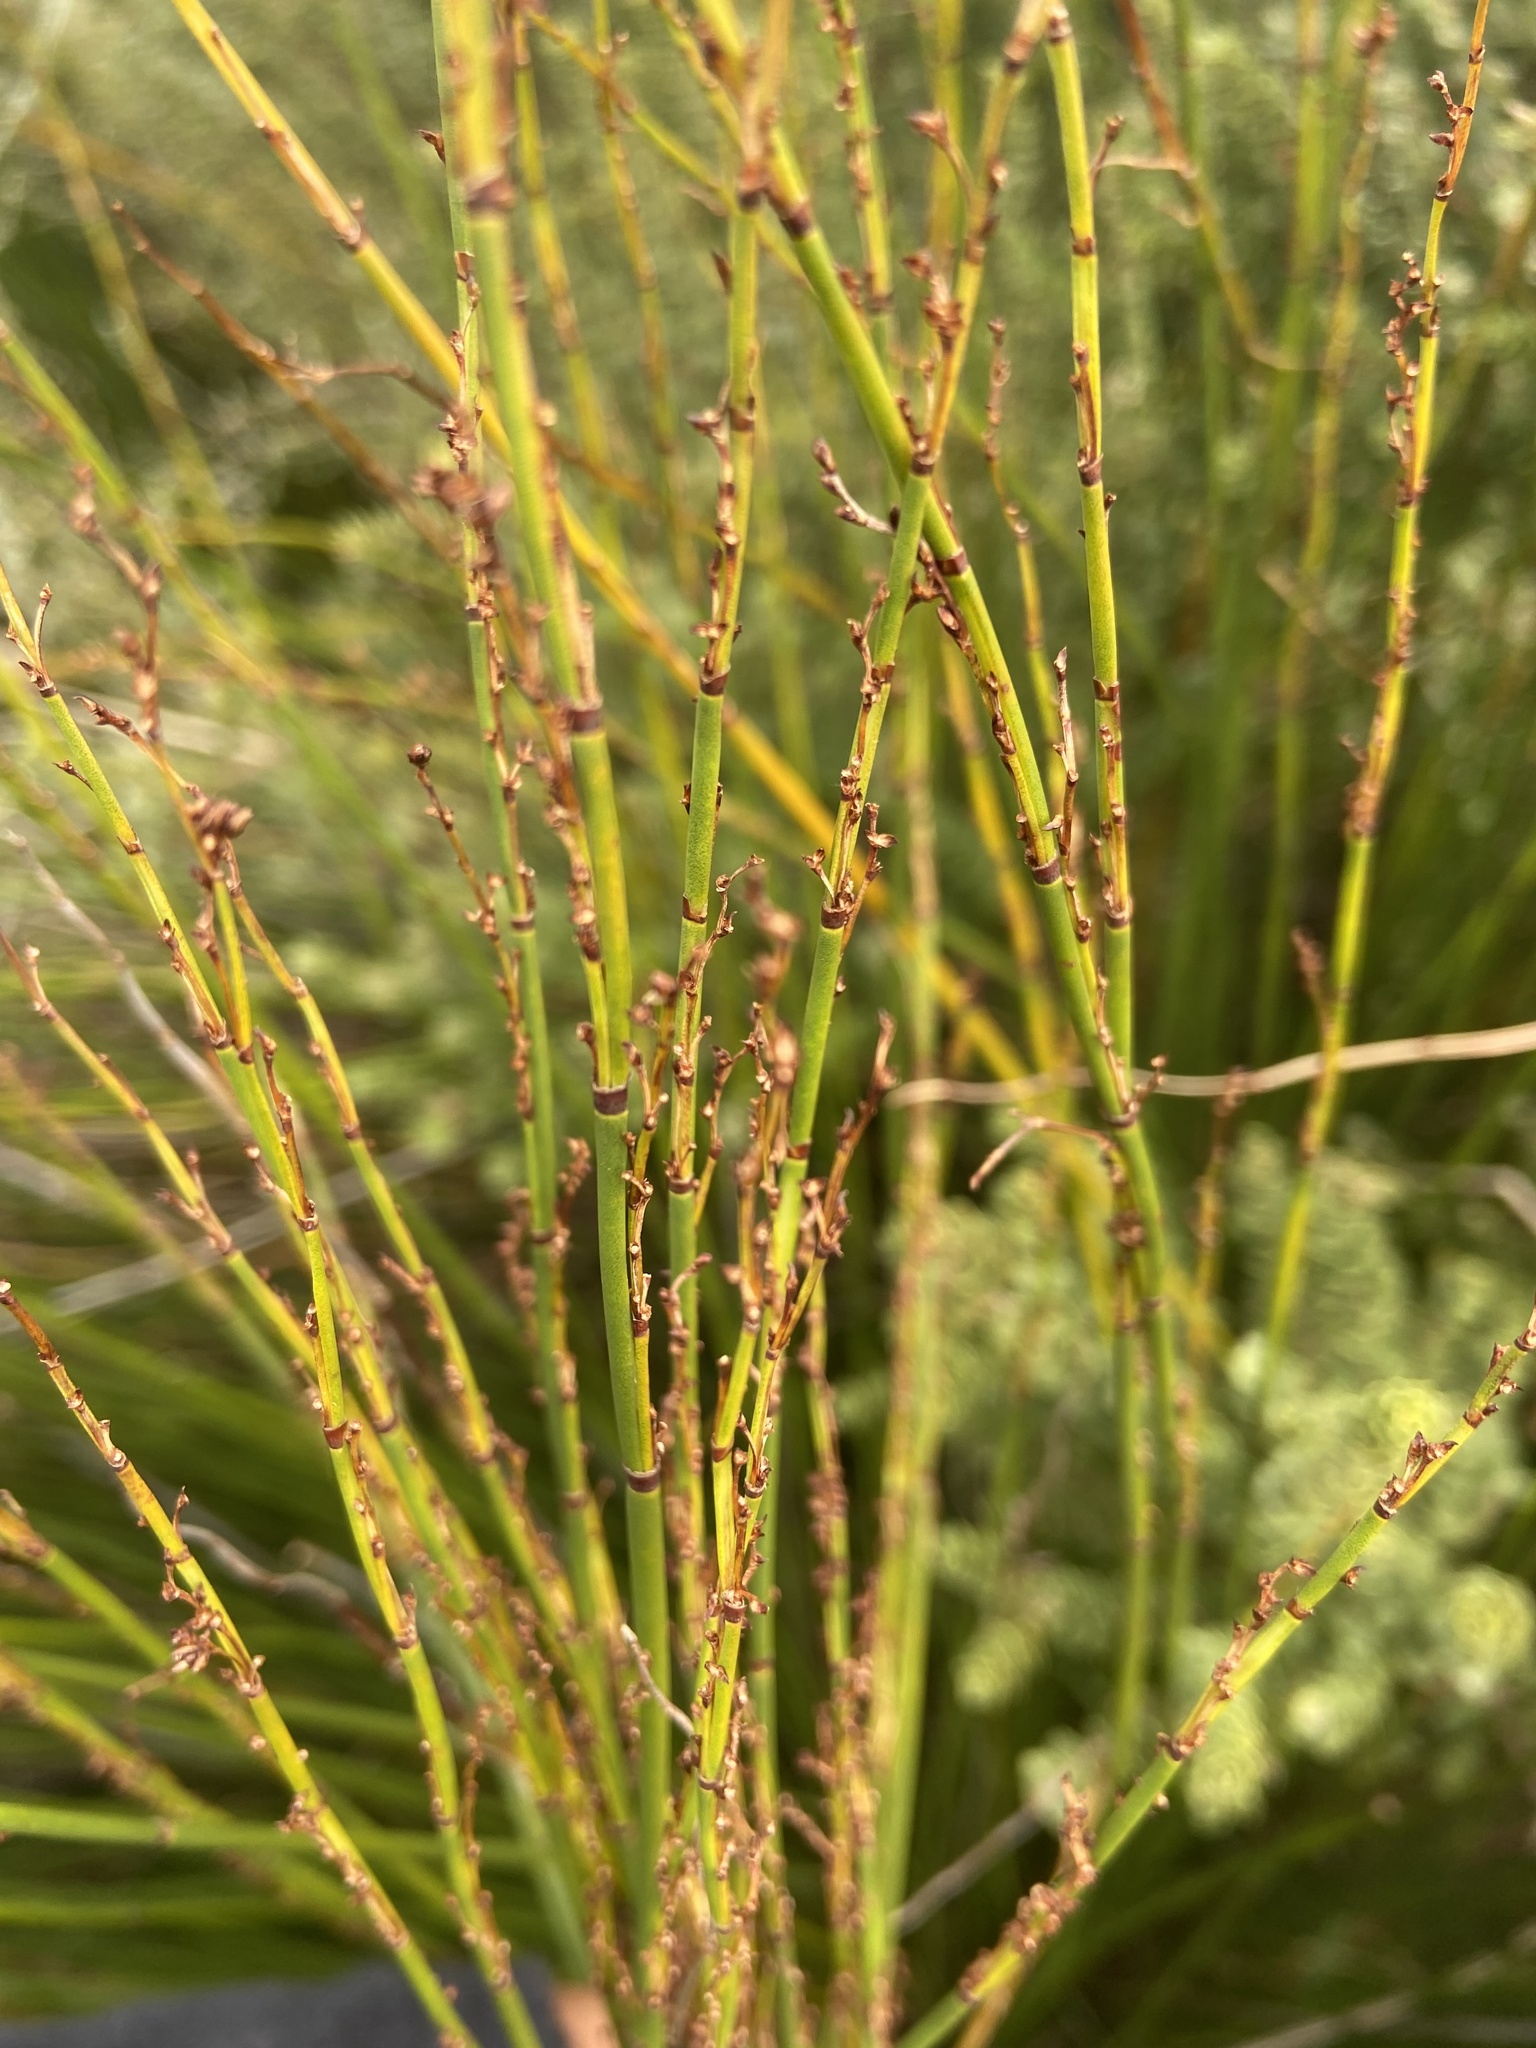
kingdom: Plantae
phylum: Tracheophyta
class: Liliopsida
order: Poales
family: Restionaceae
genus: Elegia
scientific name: Elegia tectorum
